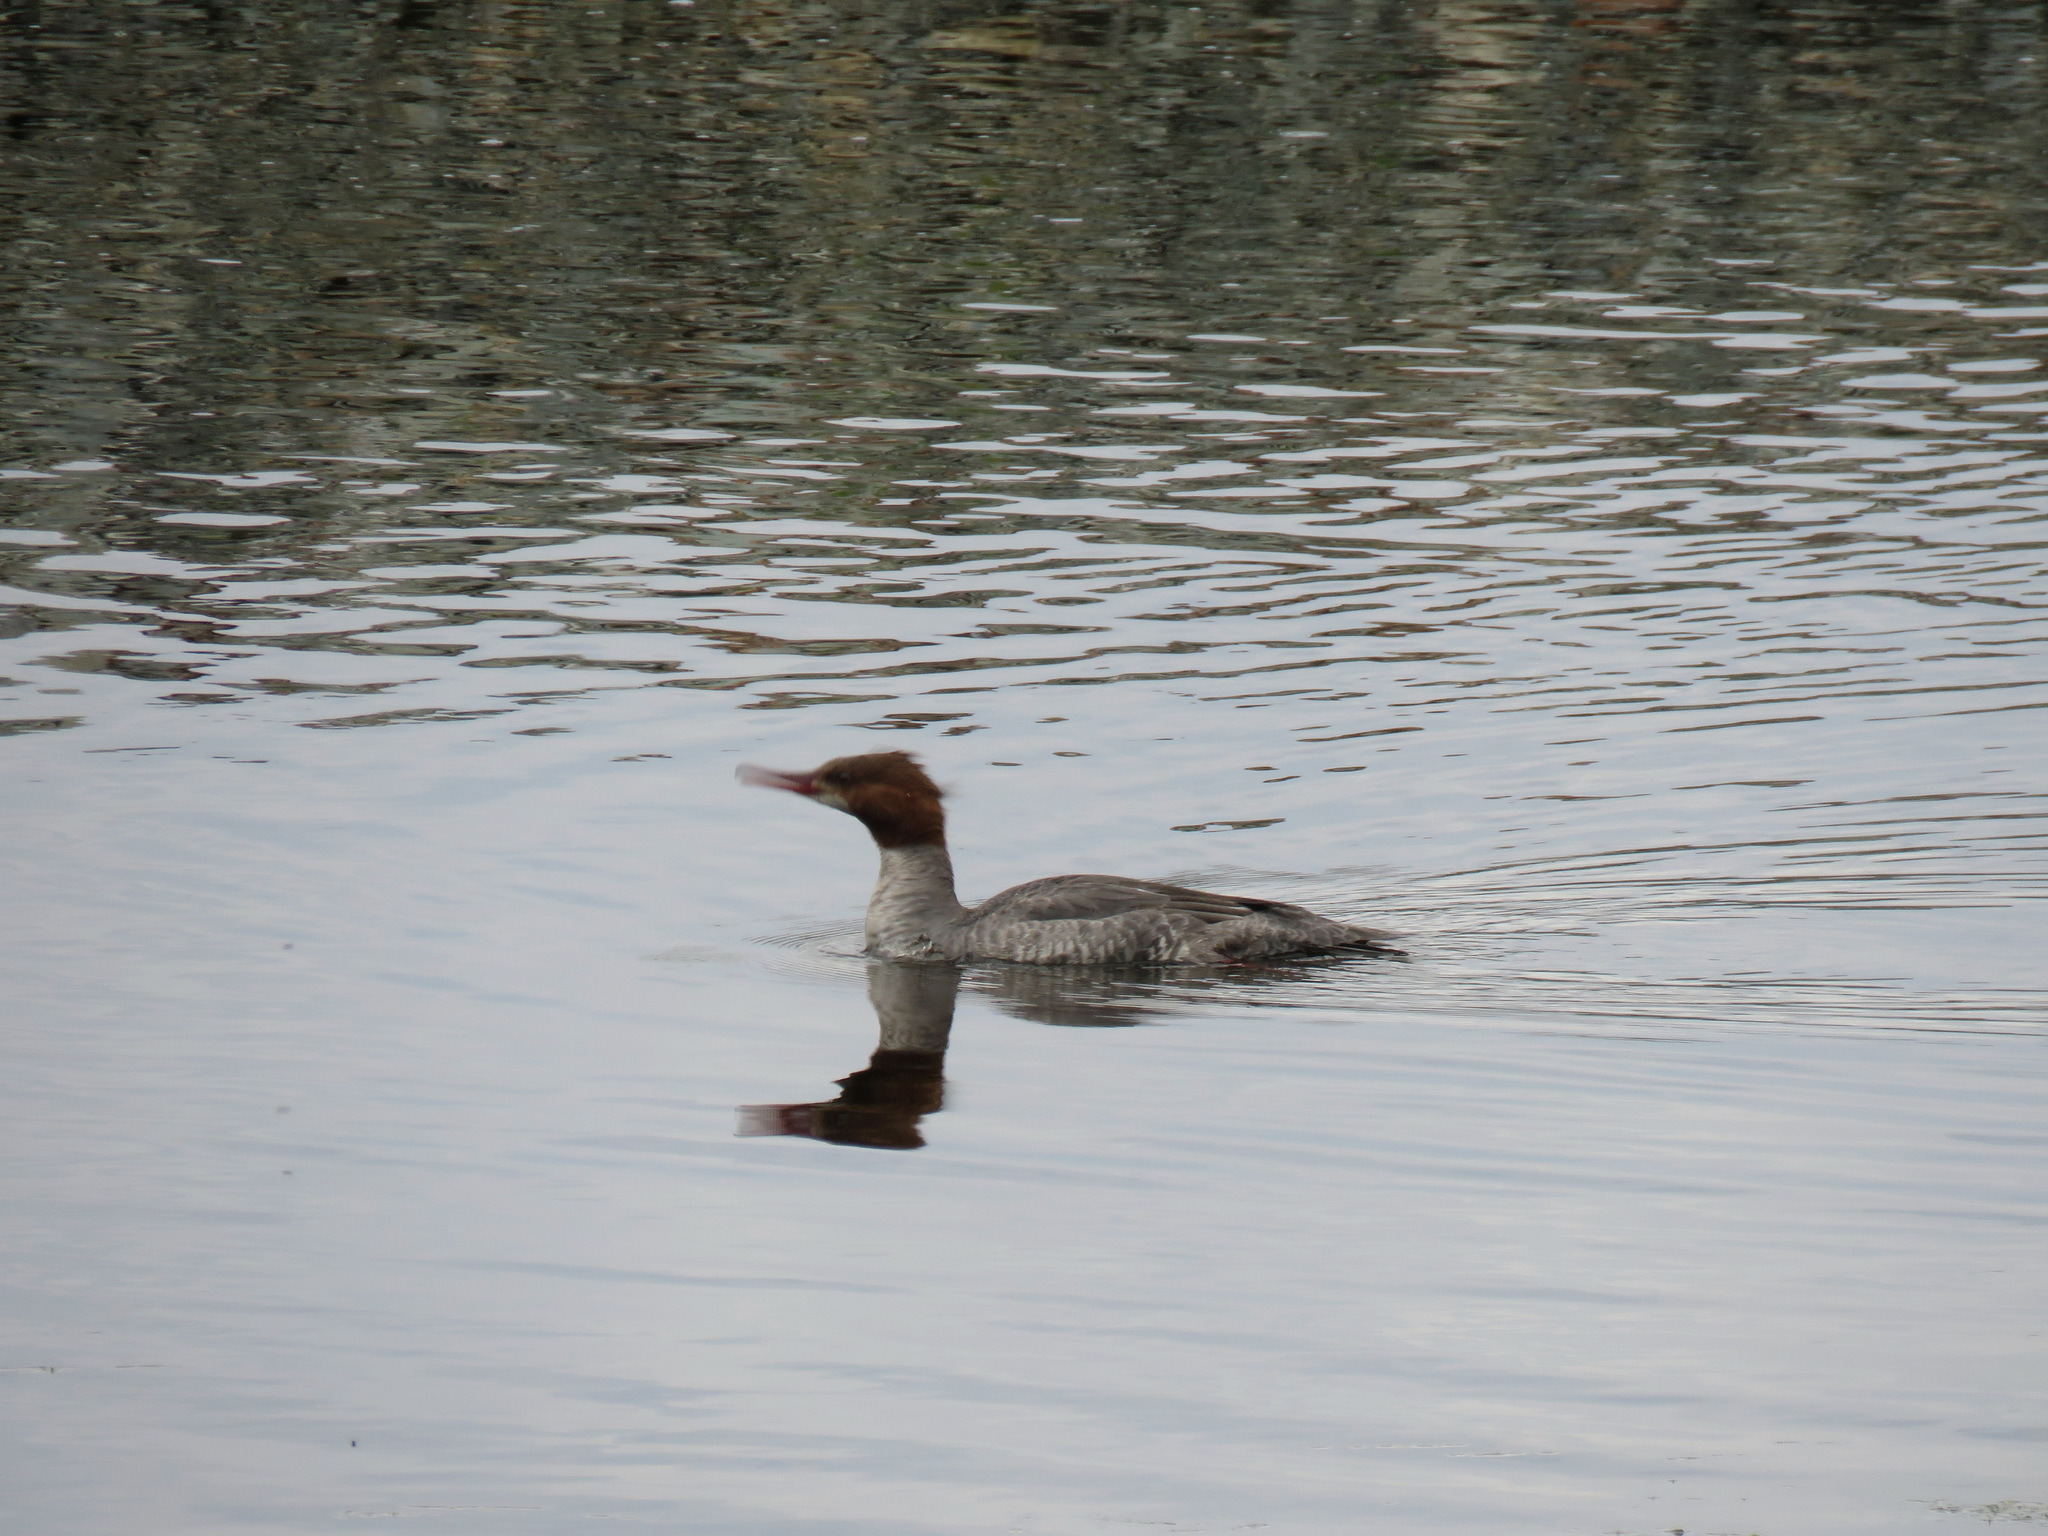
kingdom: Animalia
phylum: Chordata
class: Aves
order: Anseriformes
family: Anatidae
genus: Mergus
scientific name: Mergus merganser
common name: Common merganser
